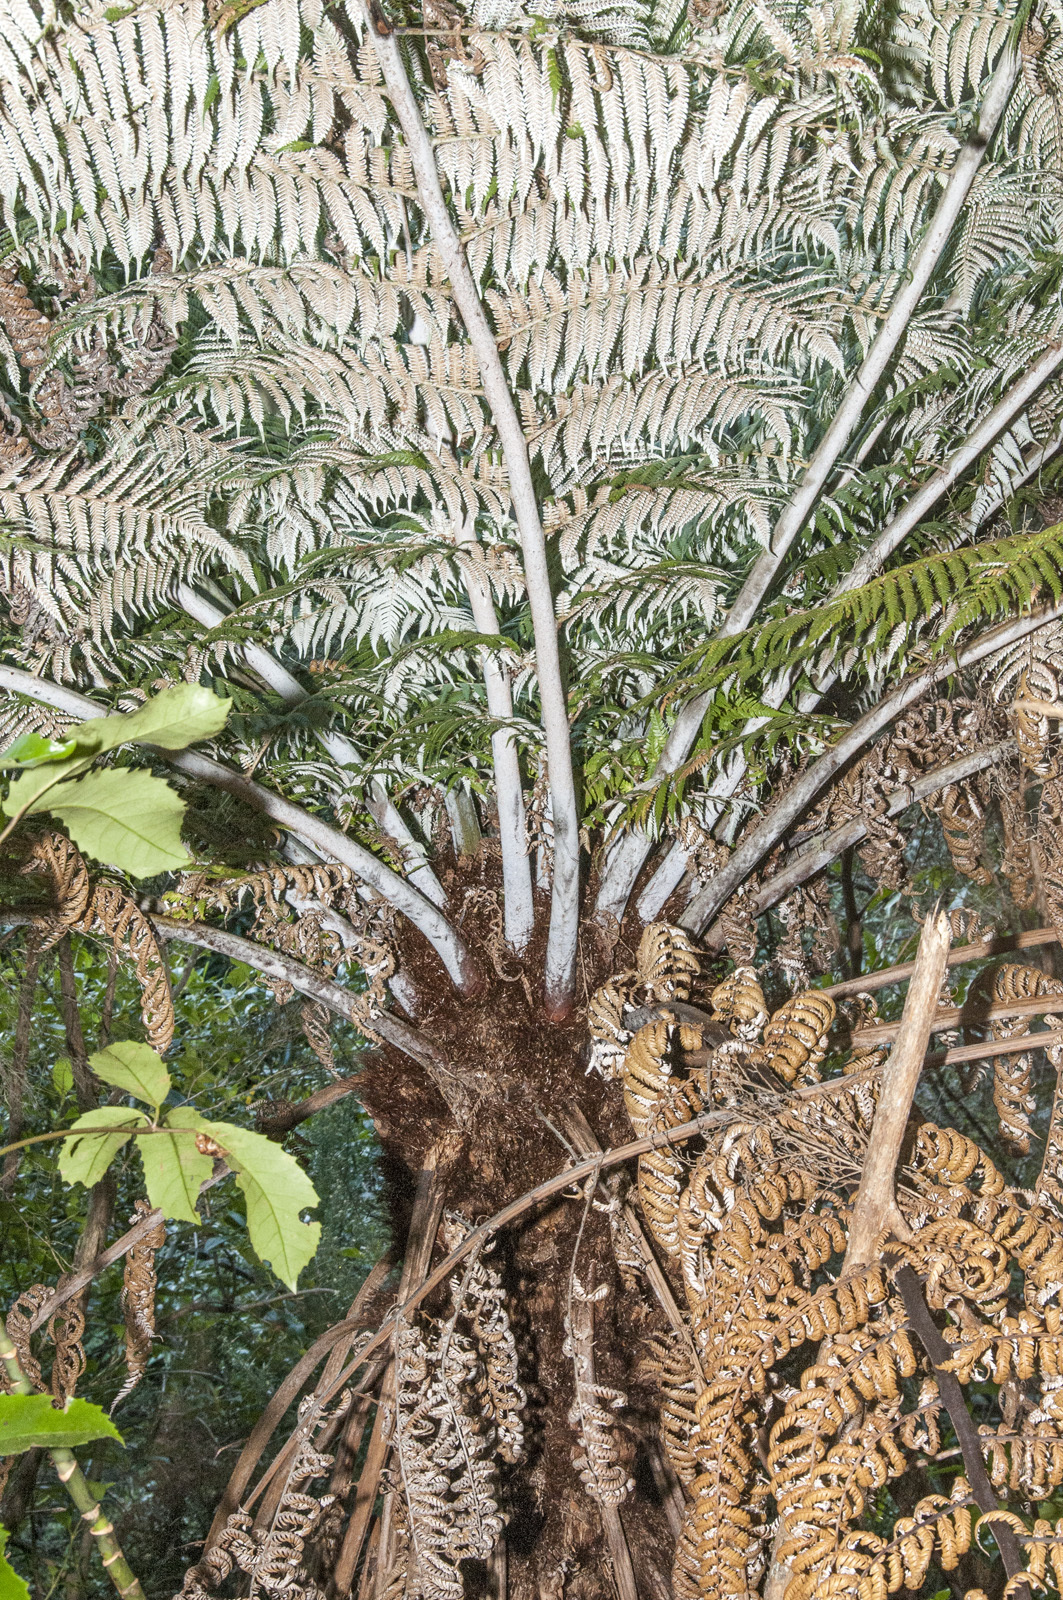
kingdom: Plantae
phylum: Tracheophyta
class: Polypodiopsida
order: Cyatheales
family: Cyatheaceae
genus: Alsophila
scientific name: Alsophila dealbata
